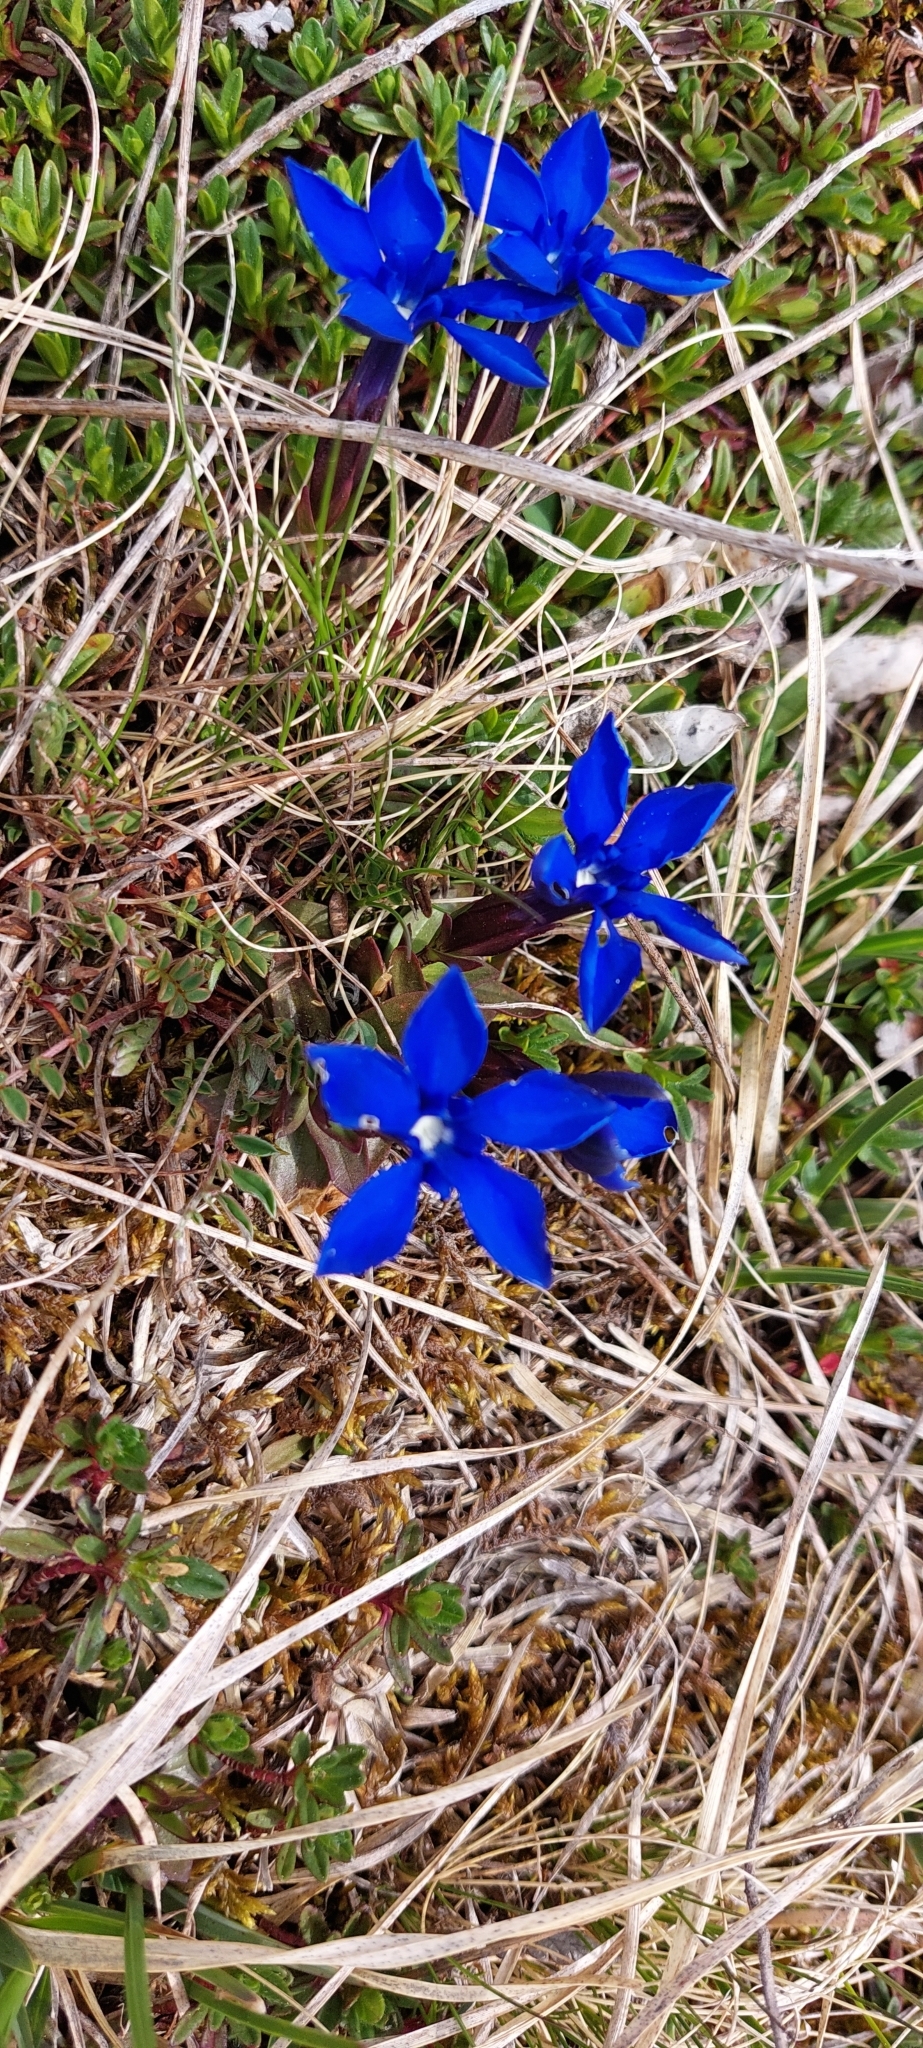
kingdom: Plantae
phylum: Tracheophyta
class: Magnoliopsida
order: Gentianales
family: Gentianaceae
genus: Gentiana
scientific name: Gentiana verna
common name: Spring gentian
